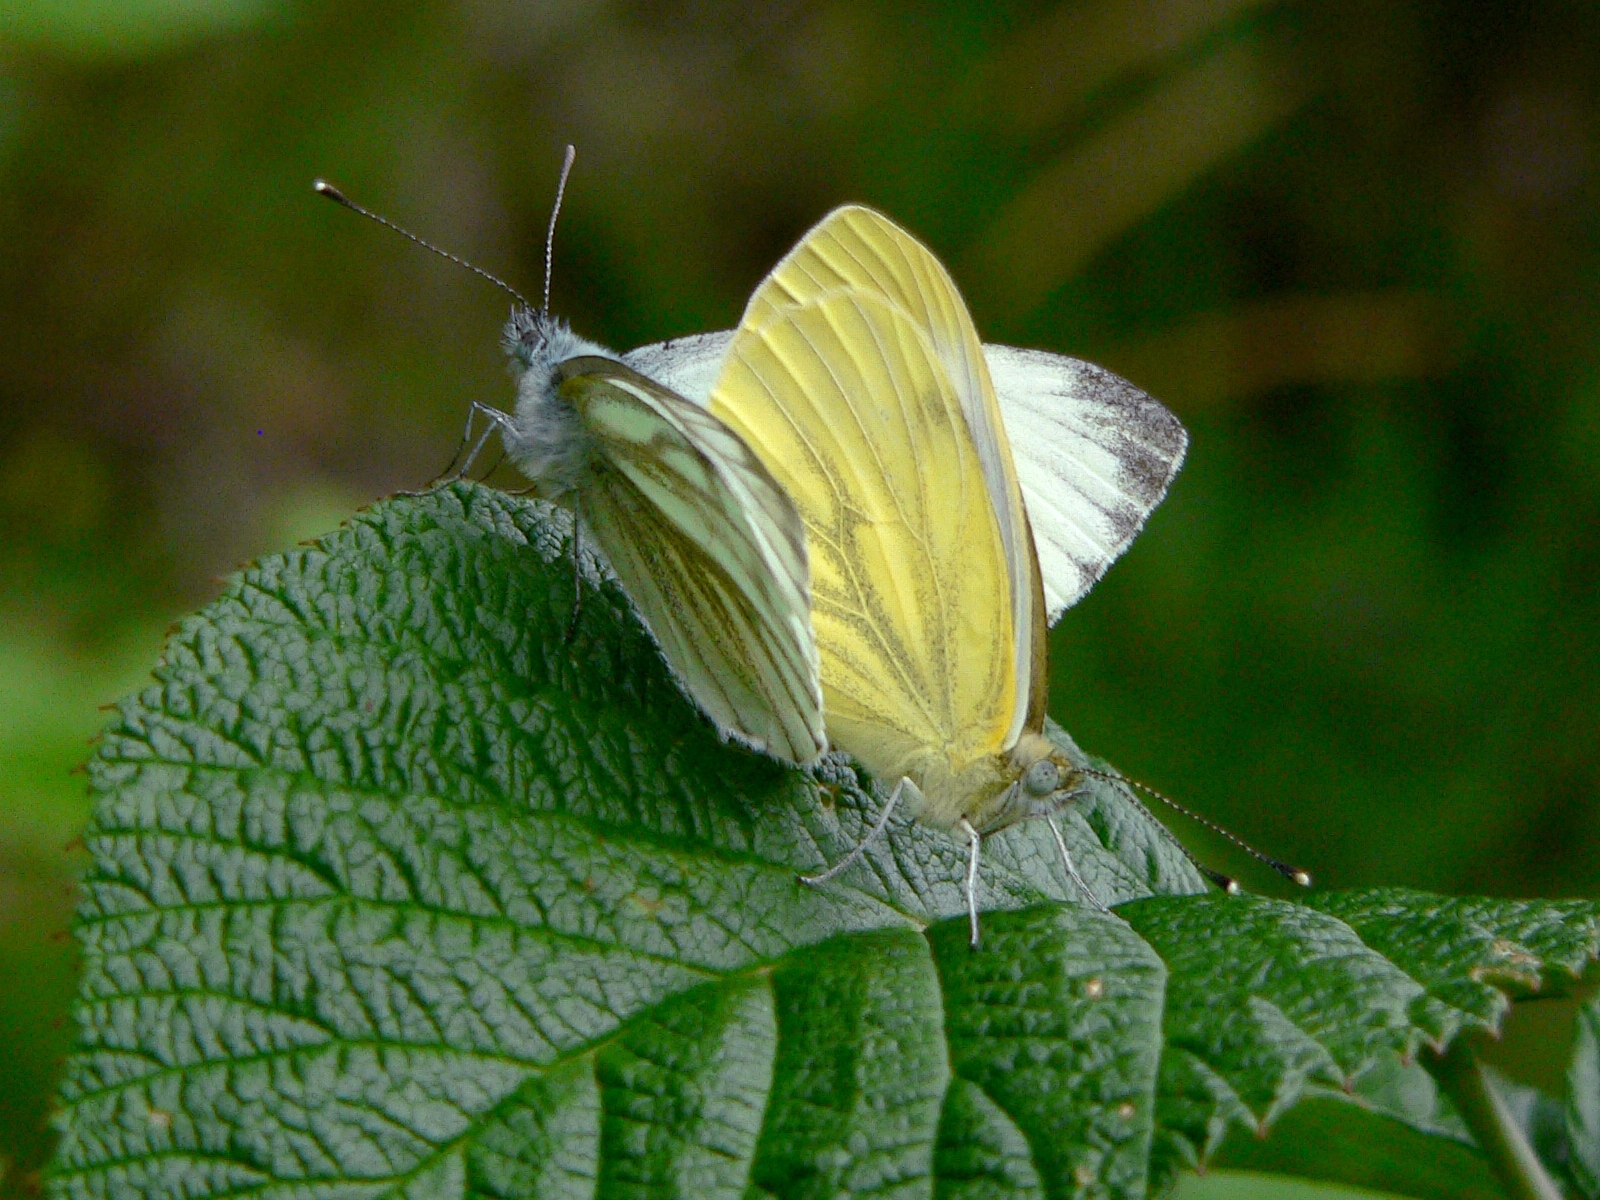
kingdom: Animalia
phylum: Arthropoda
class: Insecta
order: Lepidoptera
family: Pieridae
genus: Pieris
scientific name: Pieris napi
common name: Green-veined white
